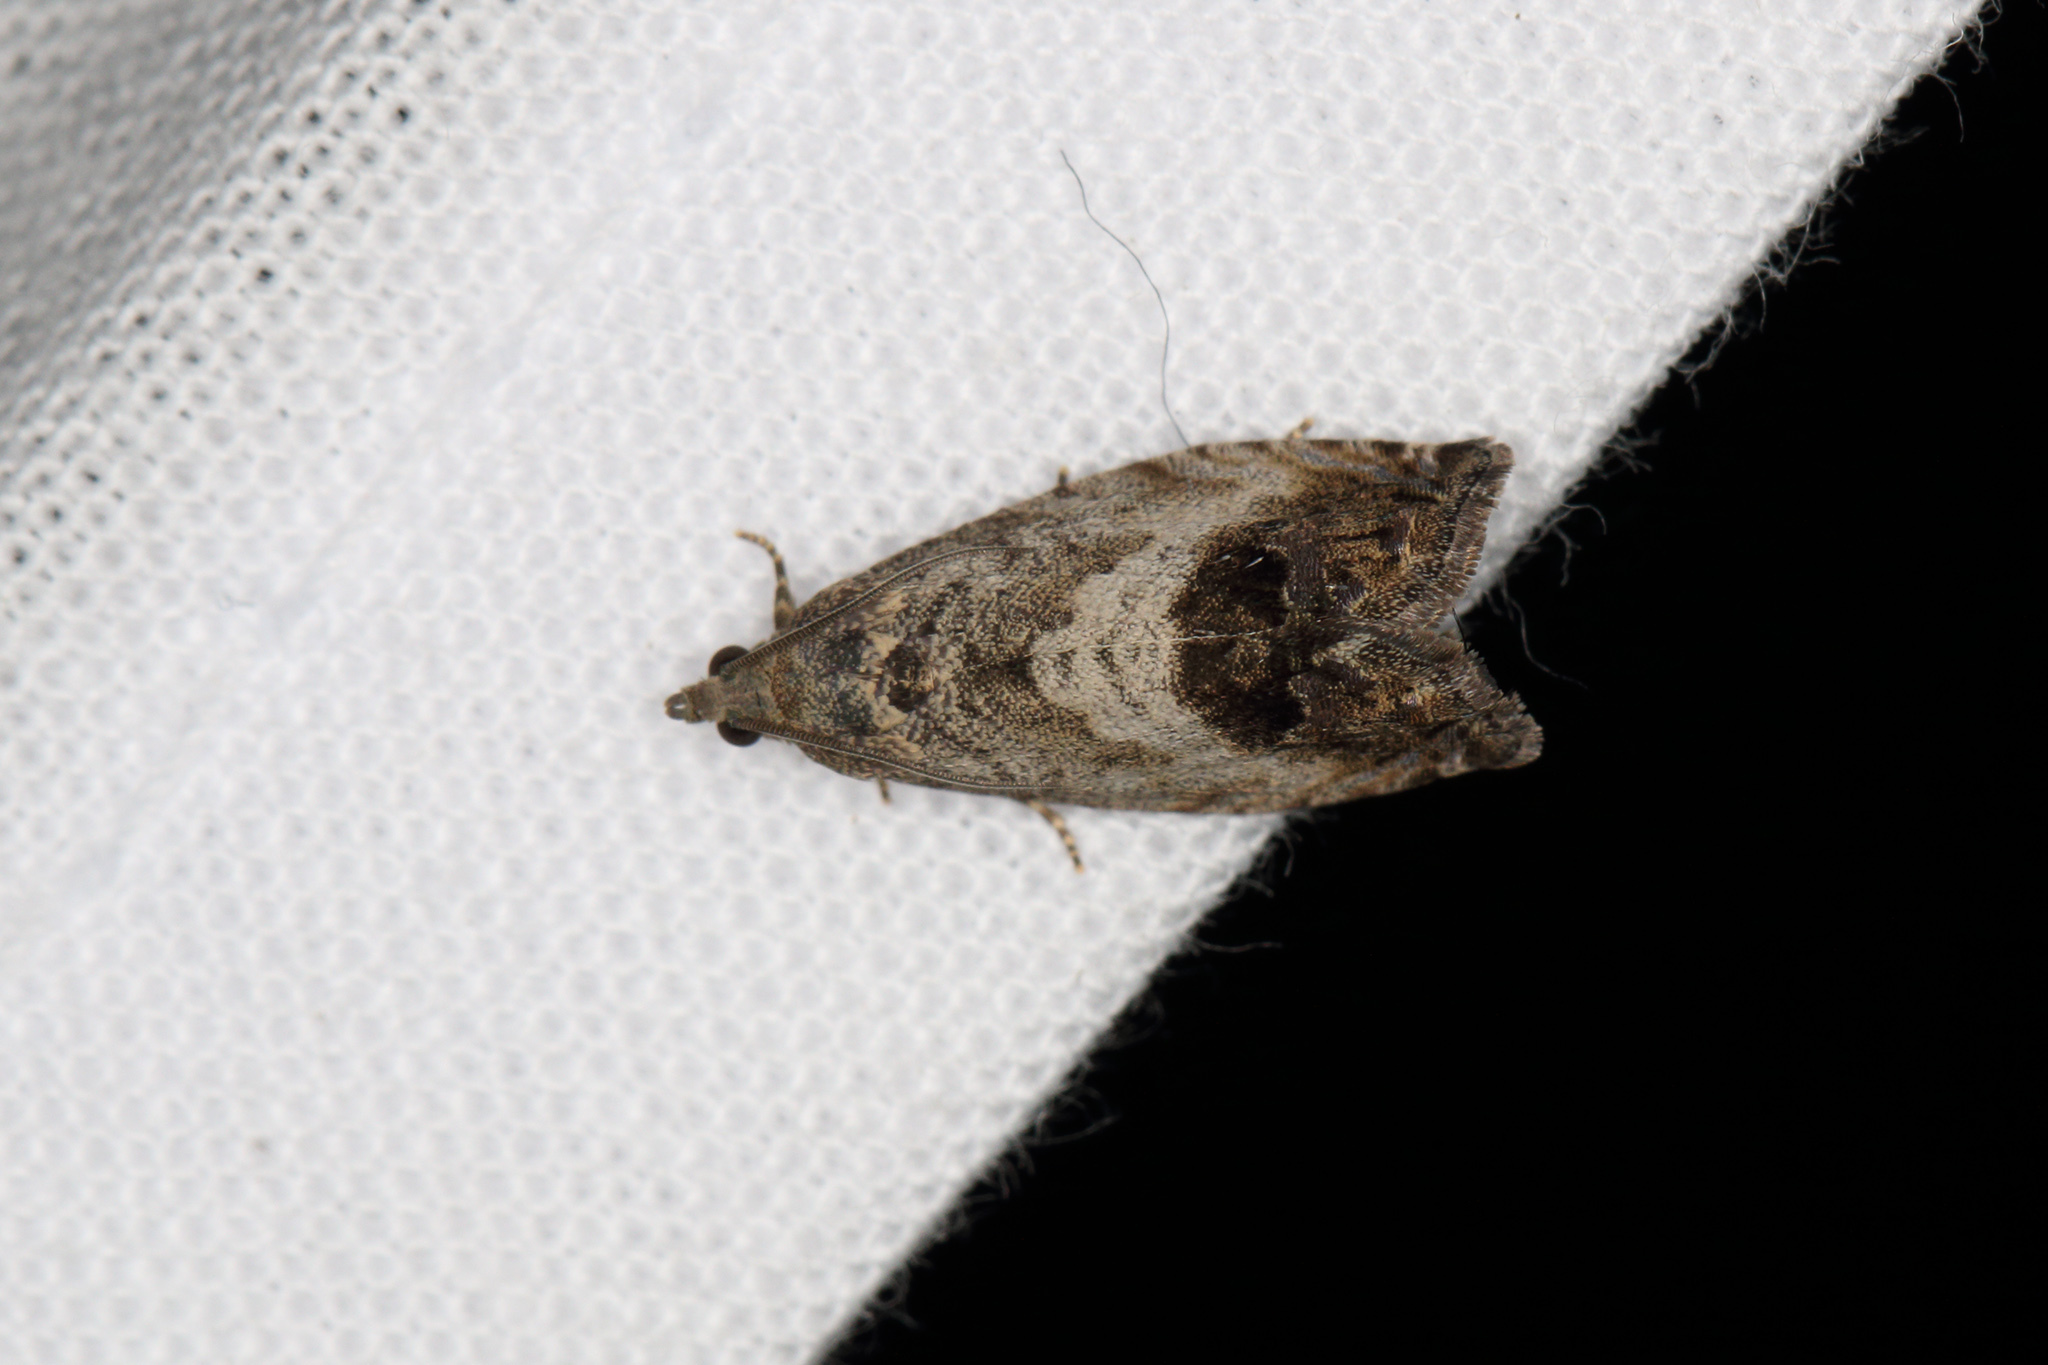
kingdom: Animalia
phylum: Arthropoda
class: Insecta
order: Lepidoptera
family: Tortricidae
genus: Cydia
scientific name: Cydia splendana
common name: De: kastanienwickler, eichenwickler es: oruga de la castaña fr: carpocapse des châtaignes it: cidia o tortrice tardiva delle castagne pt: bichado das castanhas gb: acorn moth, chestnut fruit tortrix
